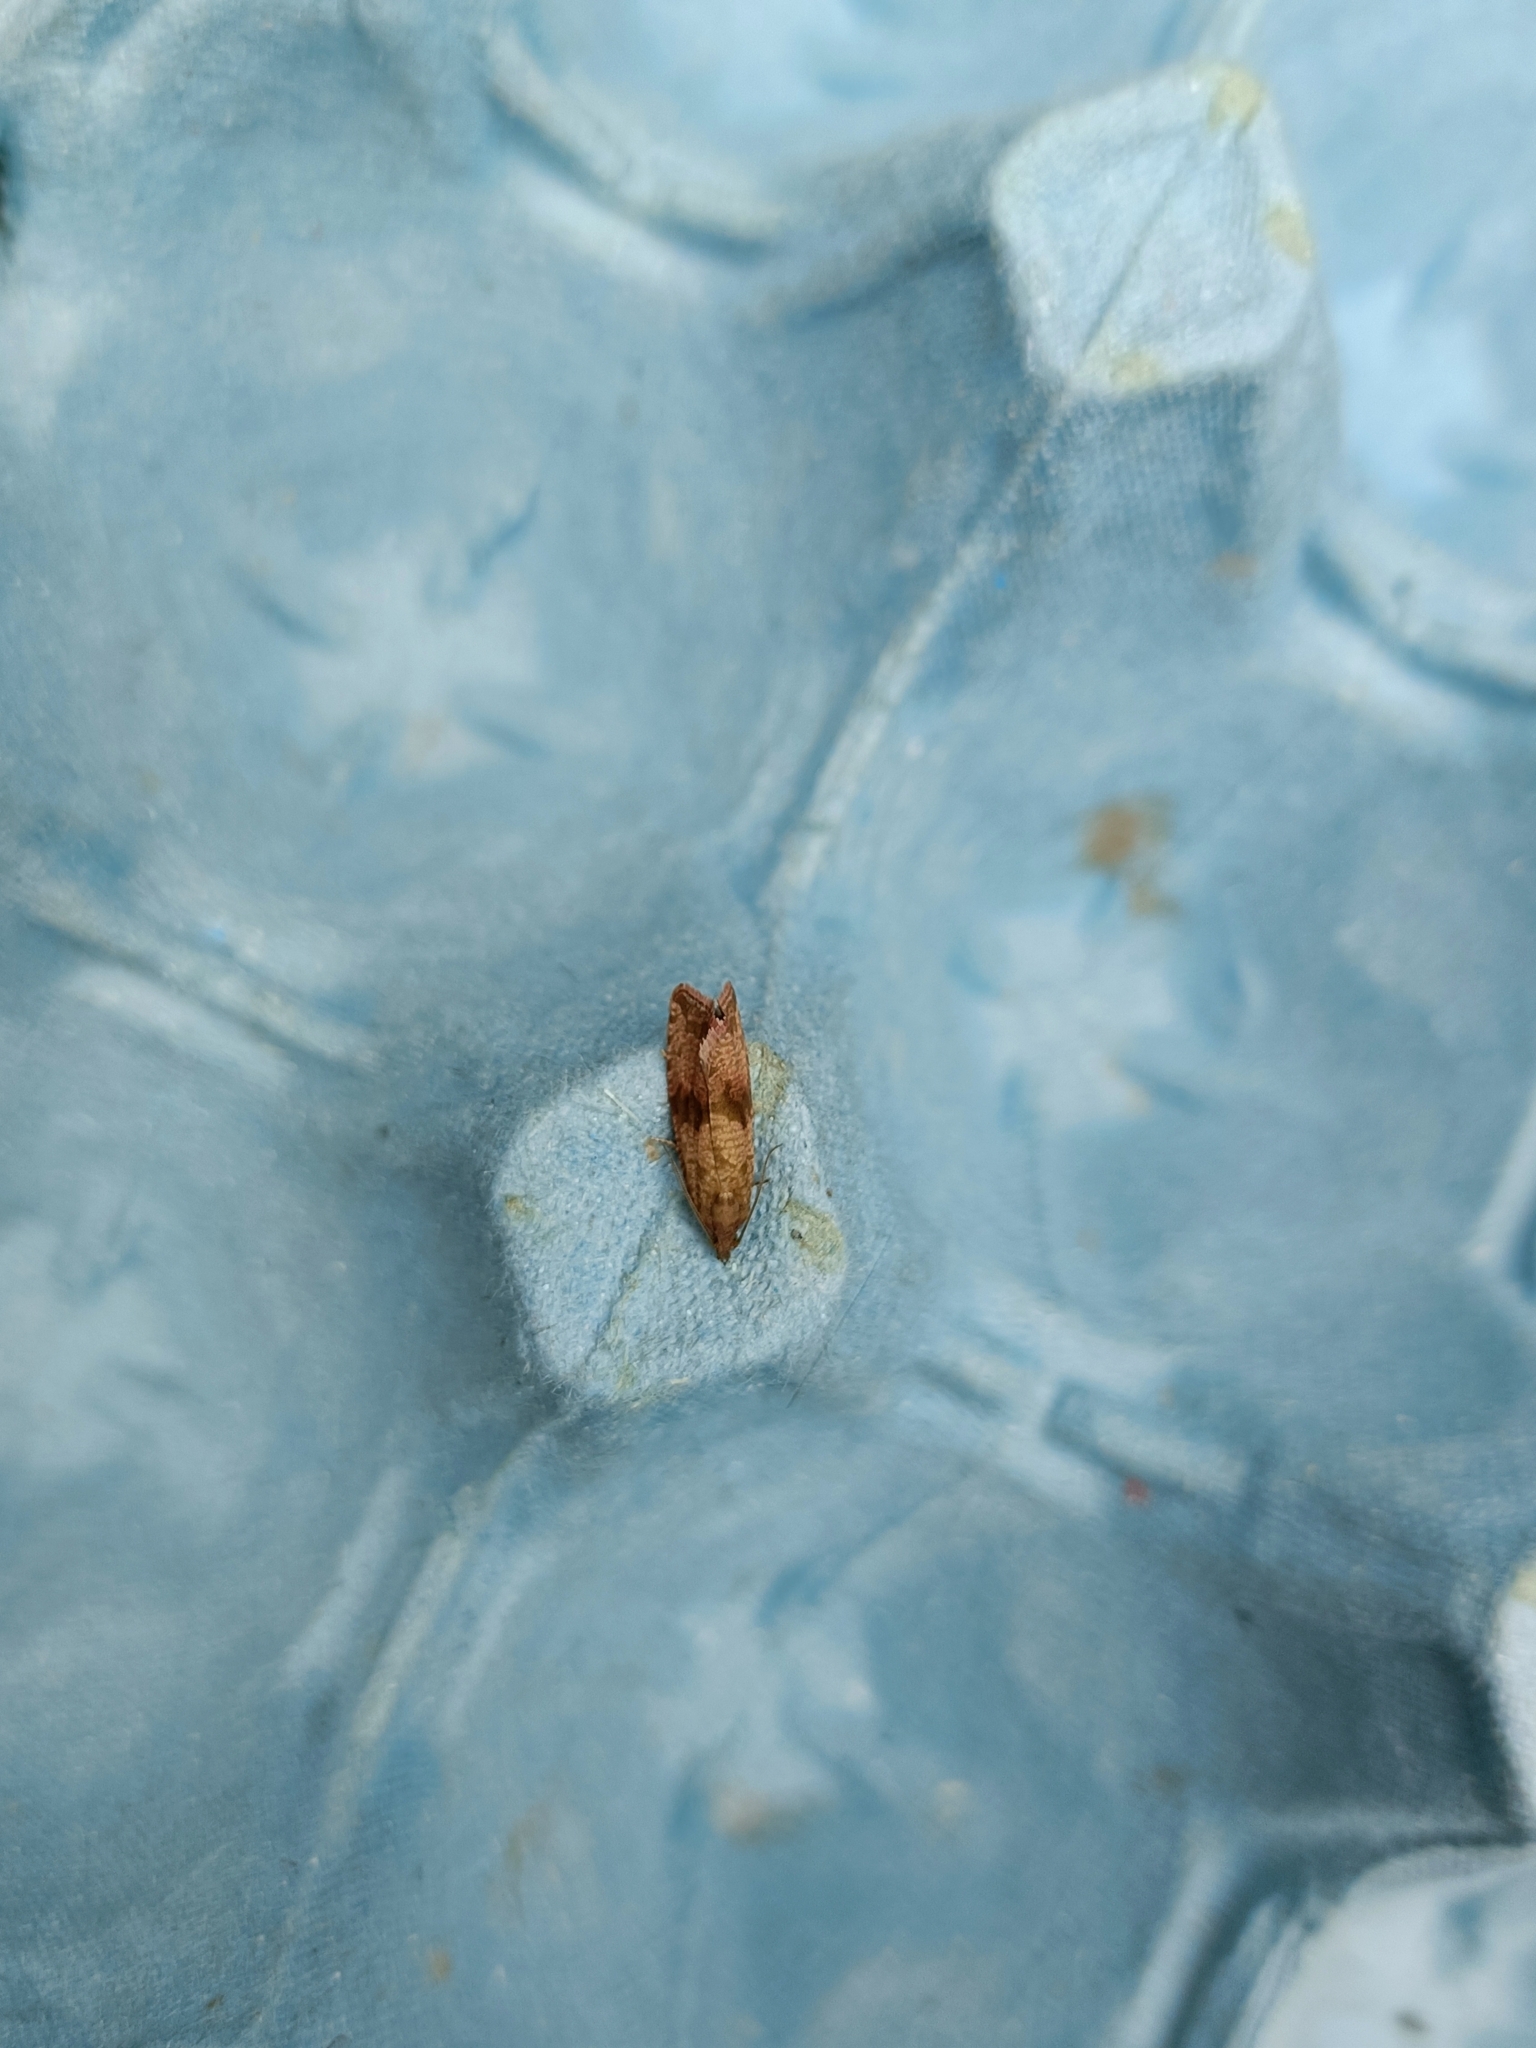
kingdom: Animalia
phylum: Arthropoda
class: Insecta
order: Lepidoptera
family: Tortricidae
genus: Celypha
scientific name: Celypha striana
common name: Barred marble
